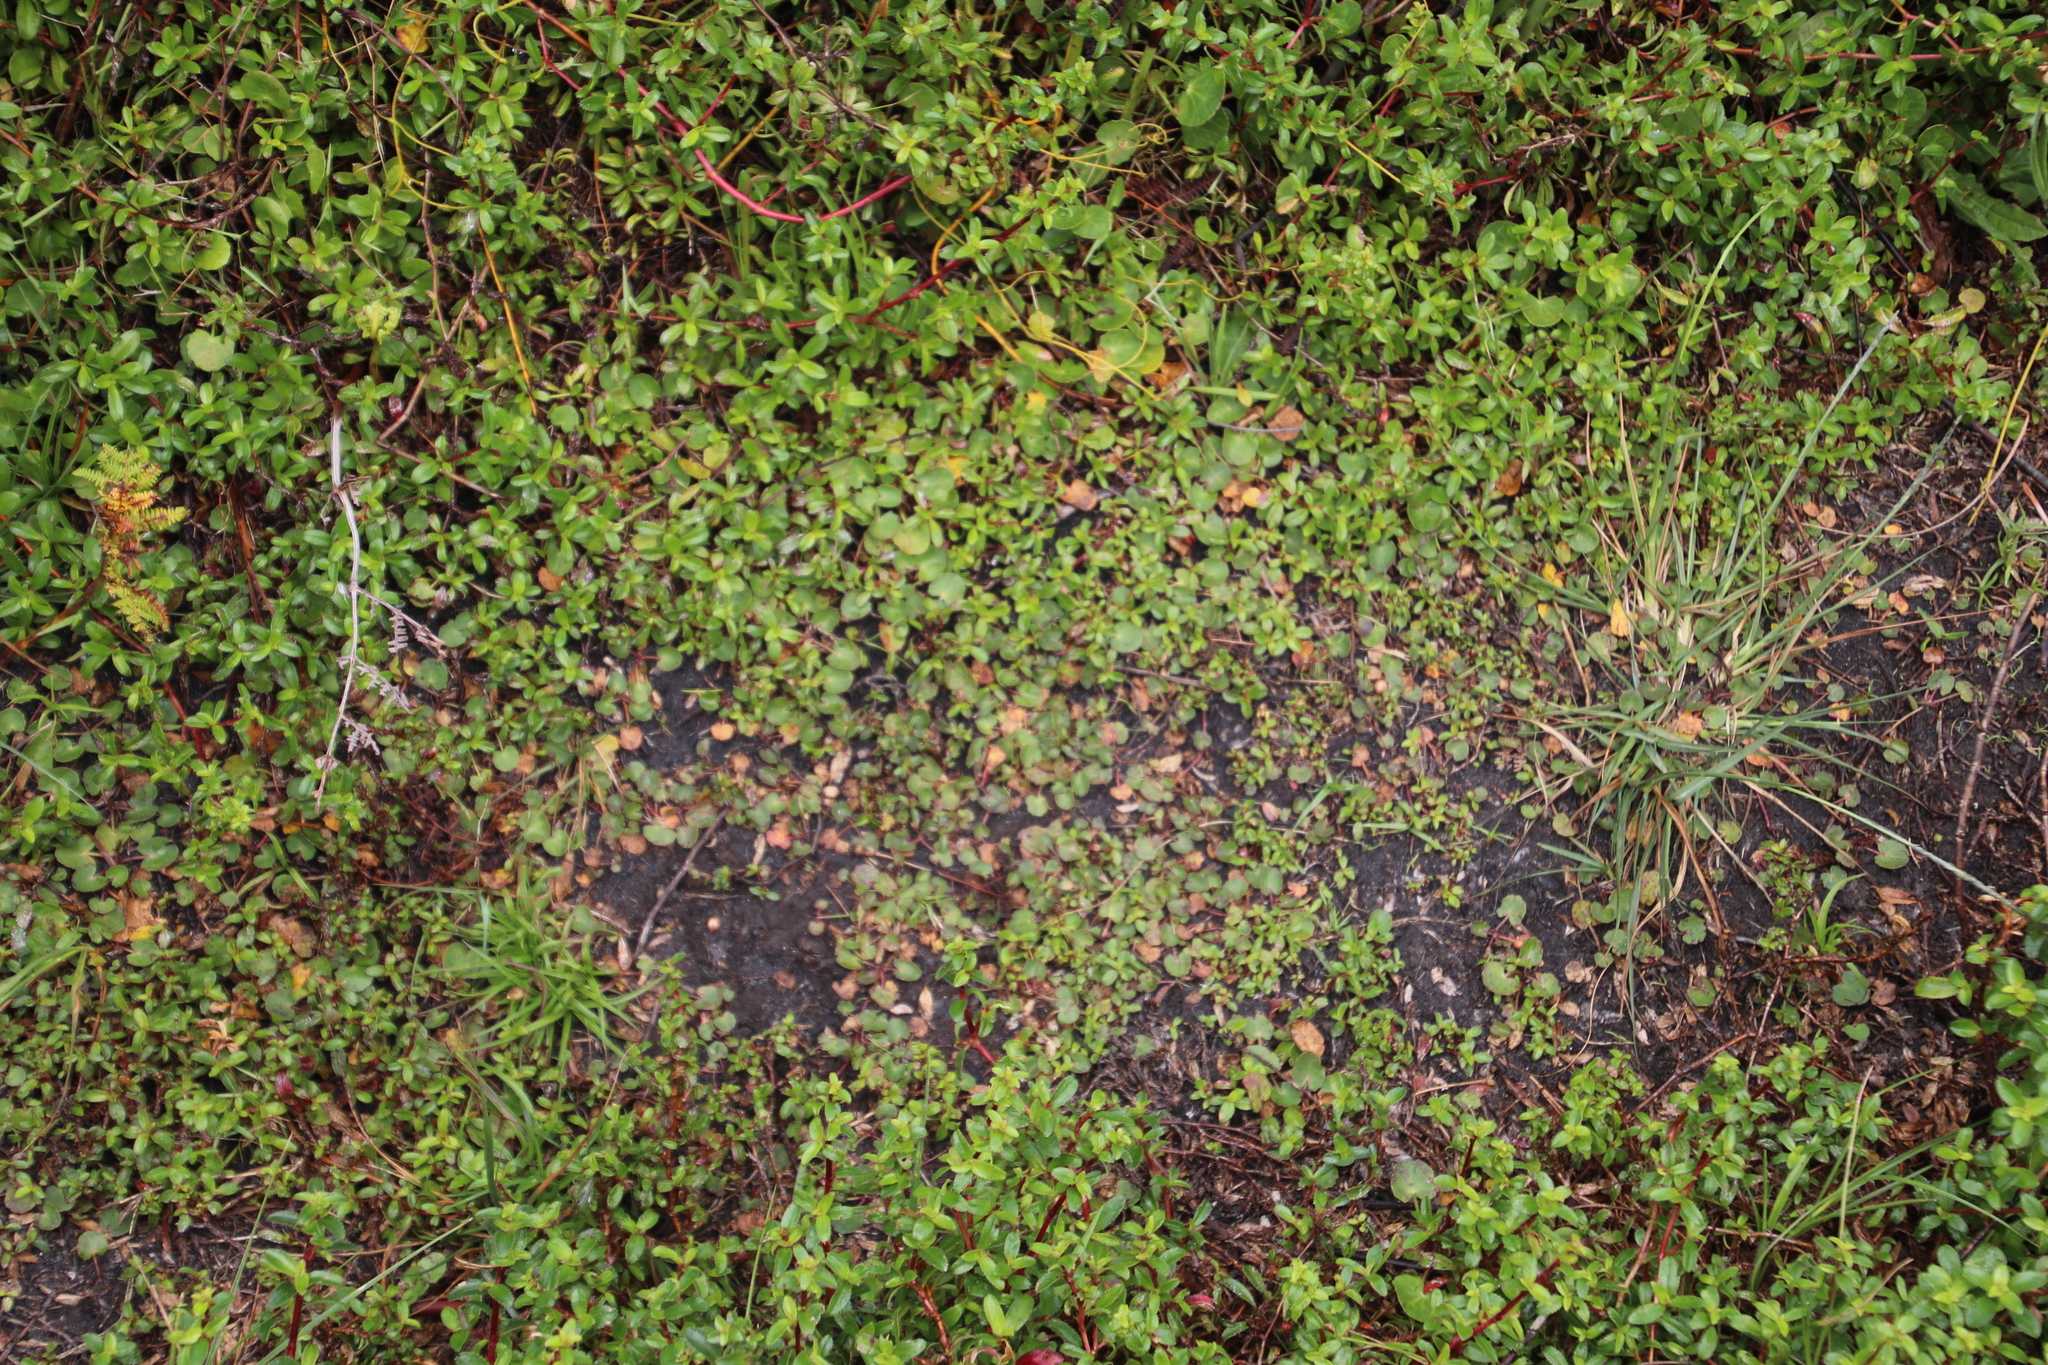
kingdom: Plantae
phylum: Tracheophyta
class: Magnoliopsida
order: Apiales
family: Apiaceae
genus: Centella
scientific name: Centella asiatica
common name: Spadeleaf
